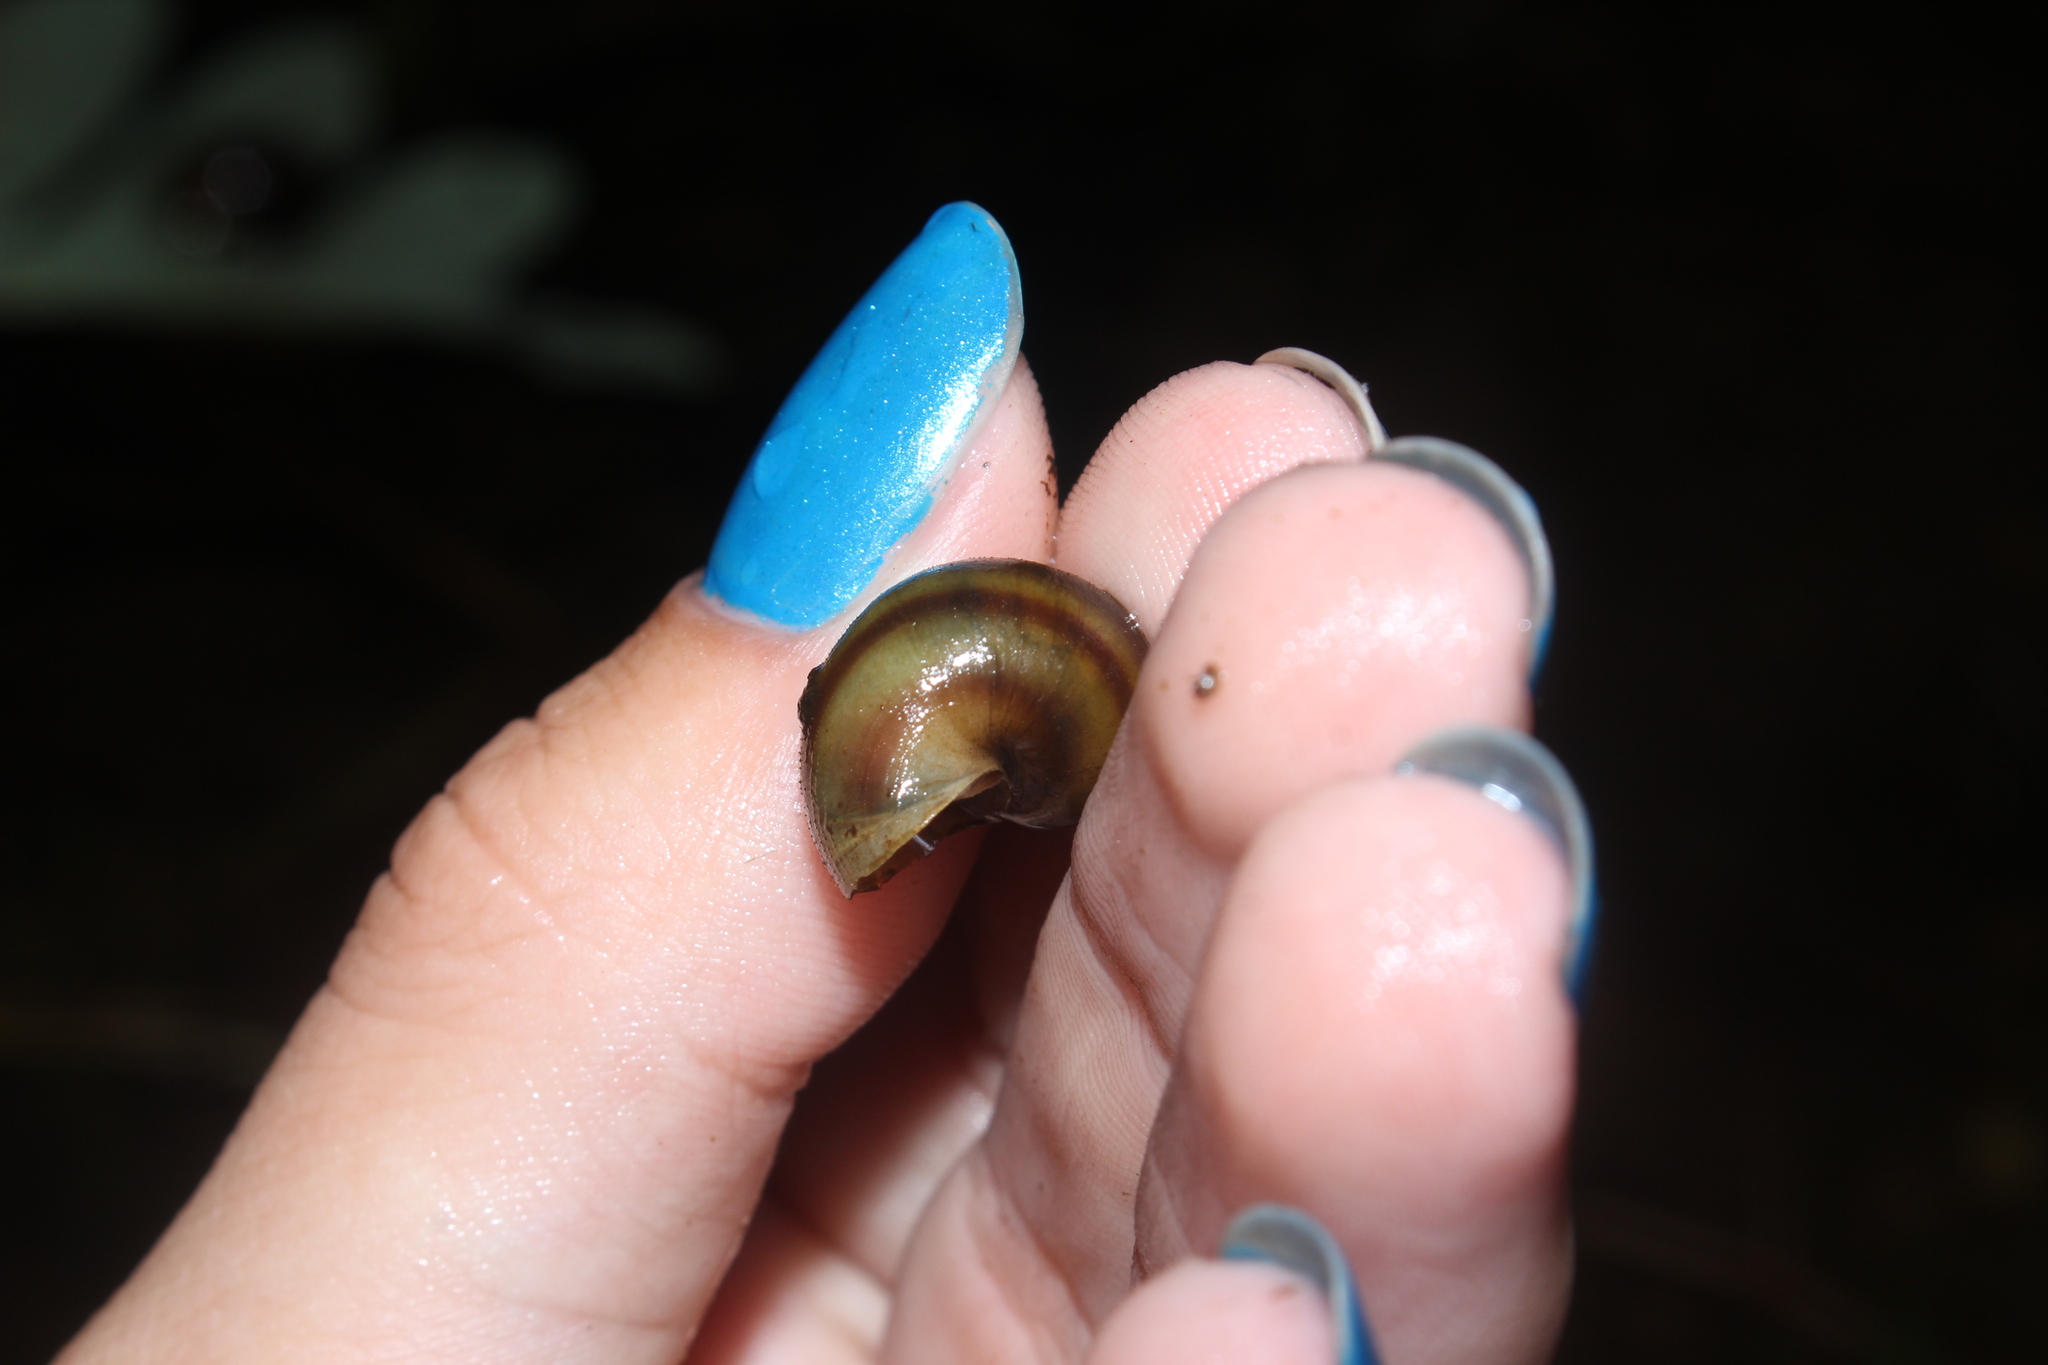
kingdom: Animalia
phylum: Mollusca
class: Gastropoda
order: Architaenioglossa
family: Viviparidae
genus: Callinina
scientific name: Callinina georgiana
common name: Banded mystery snail
